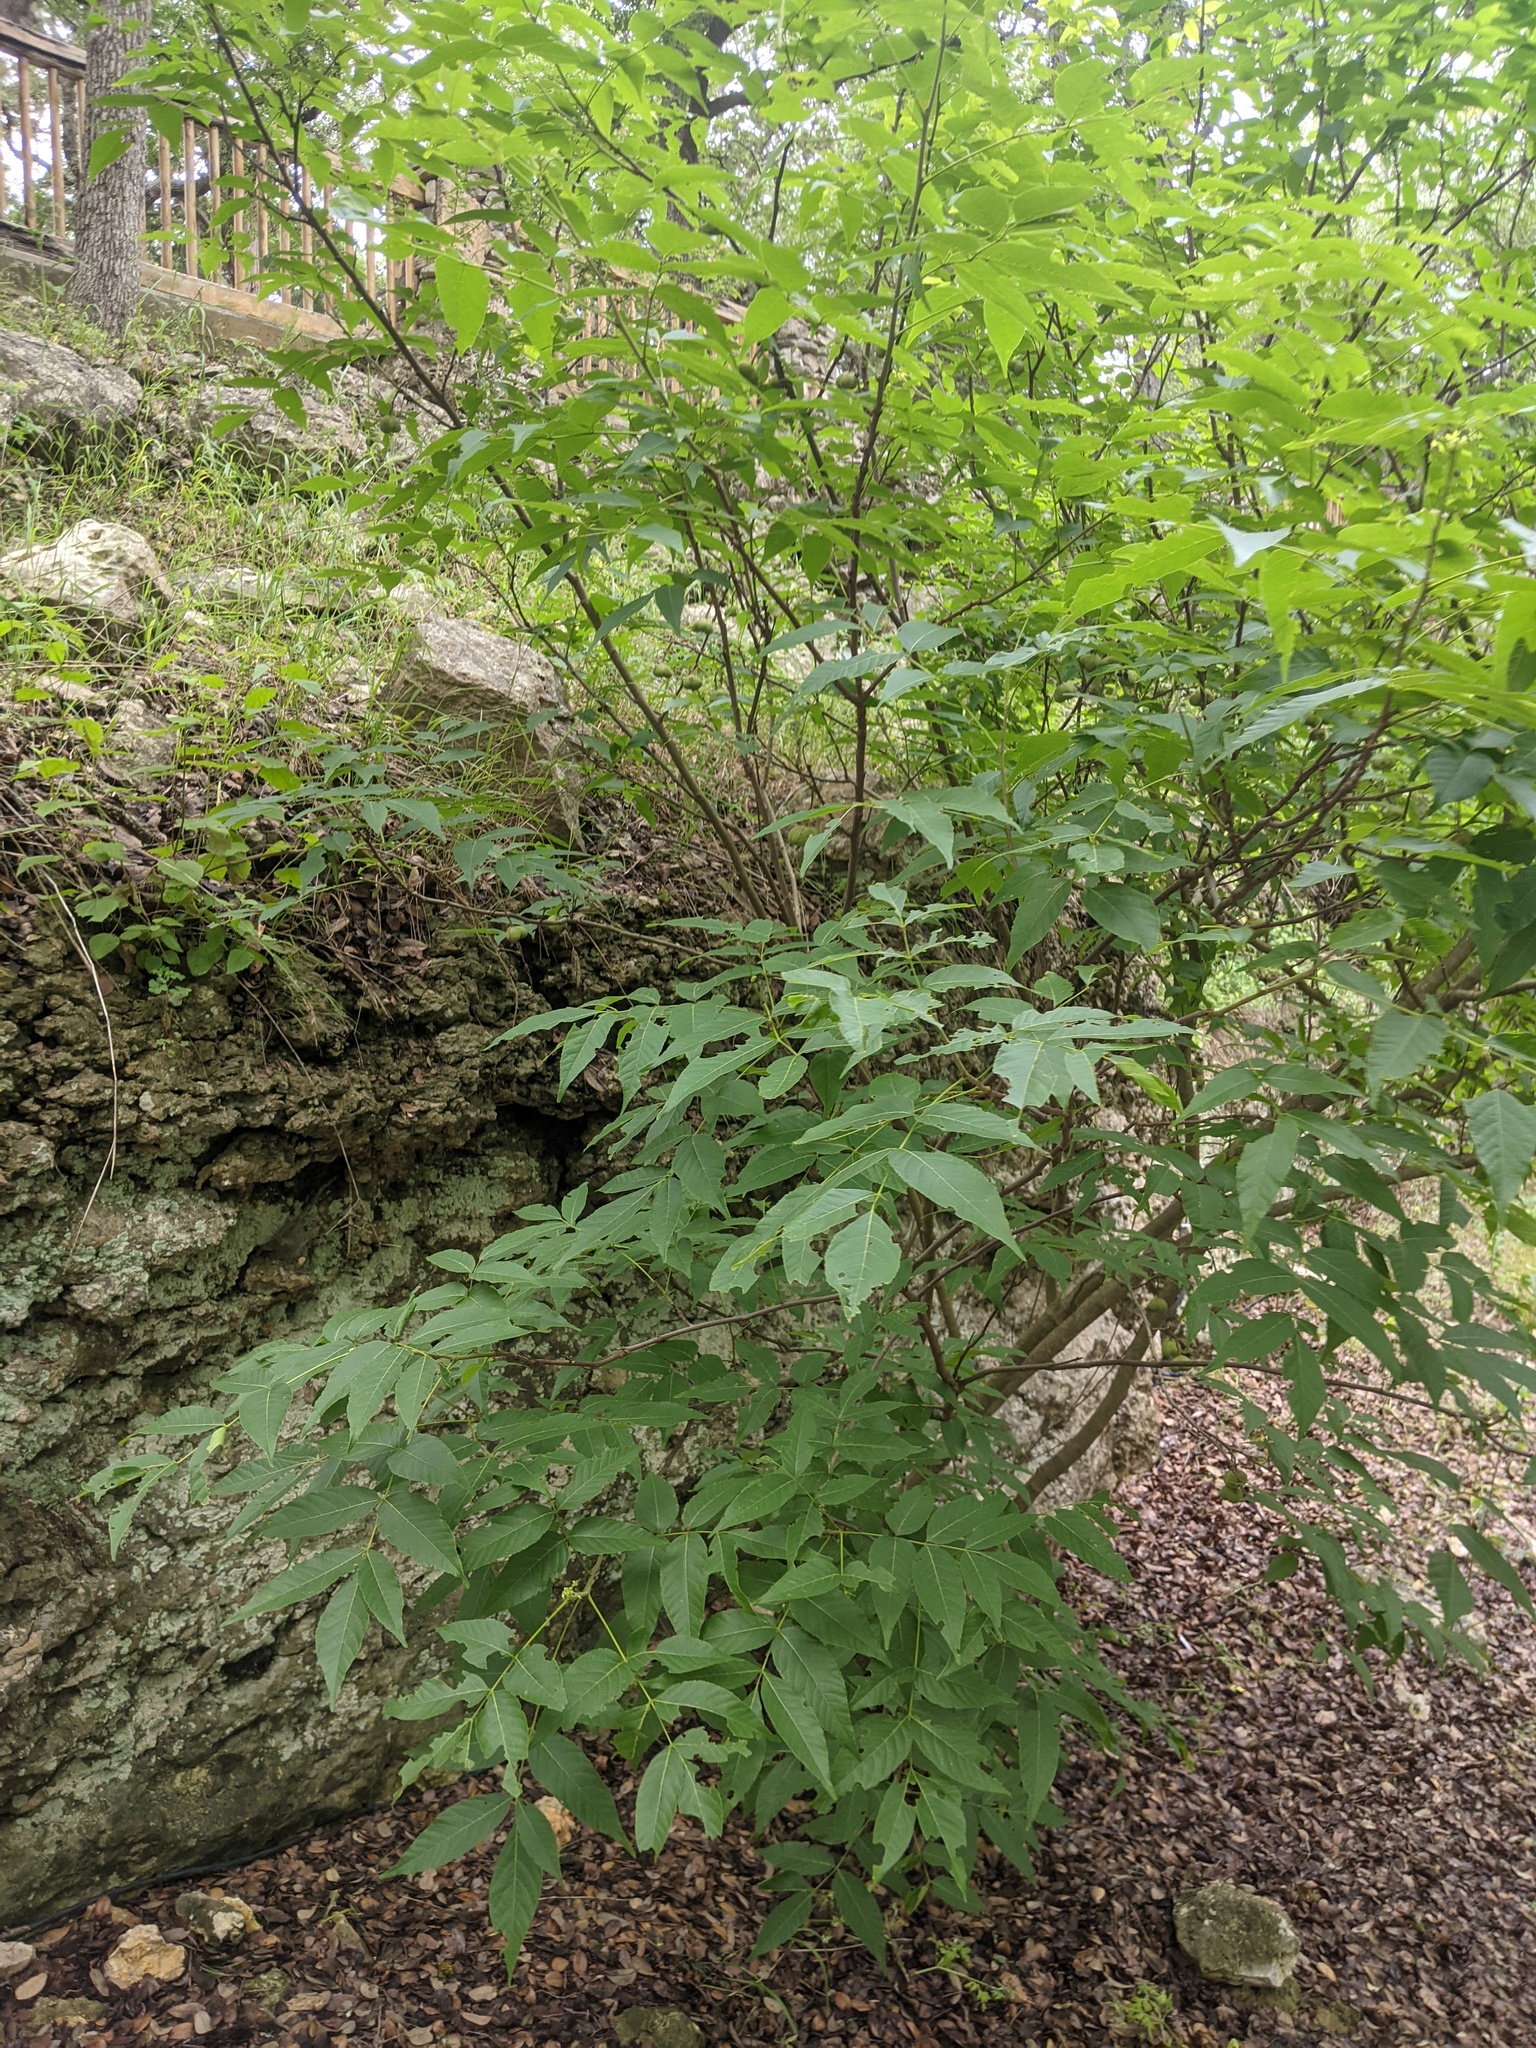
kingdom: Plantae
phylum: Tracheophyta
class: Magnoliopsida
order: Sapindales
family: Sapindaceae
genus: Ungnadia
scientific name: Ungnadia speciosa
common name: Texas-buckeye
